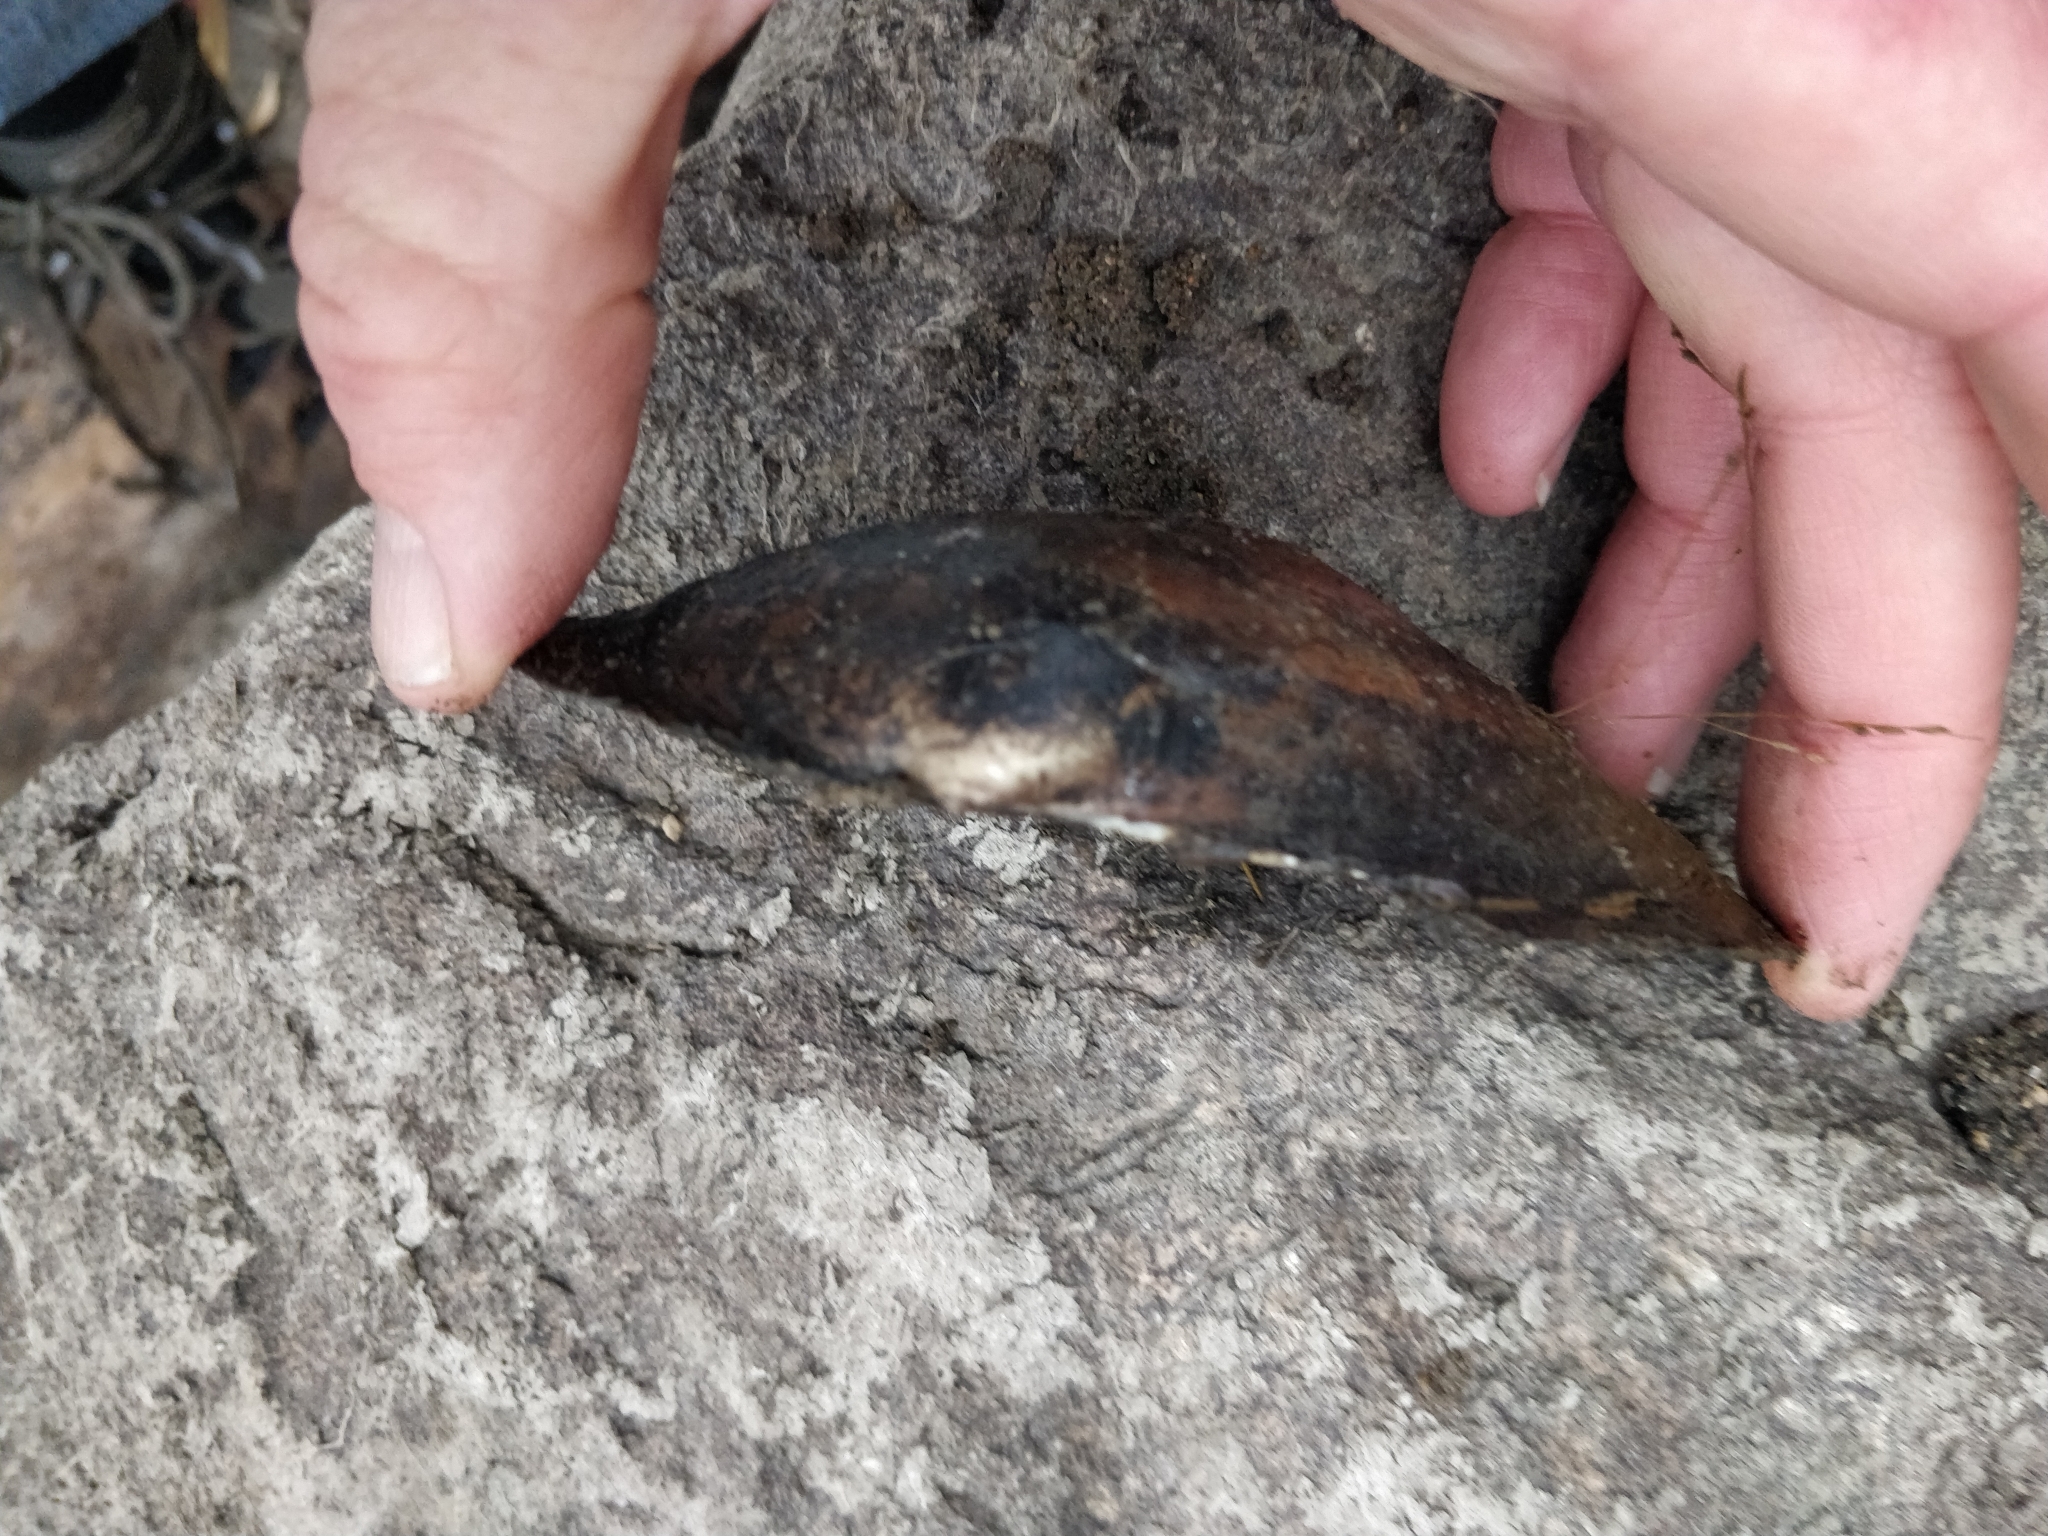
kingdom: Animalia
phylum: Mollusca
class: Bivalvia
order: Unionida
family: Unionidae
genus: Pyganodon
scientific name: Pyganodon grandis
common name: Giant floater
